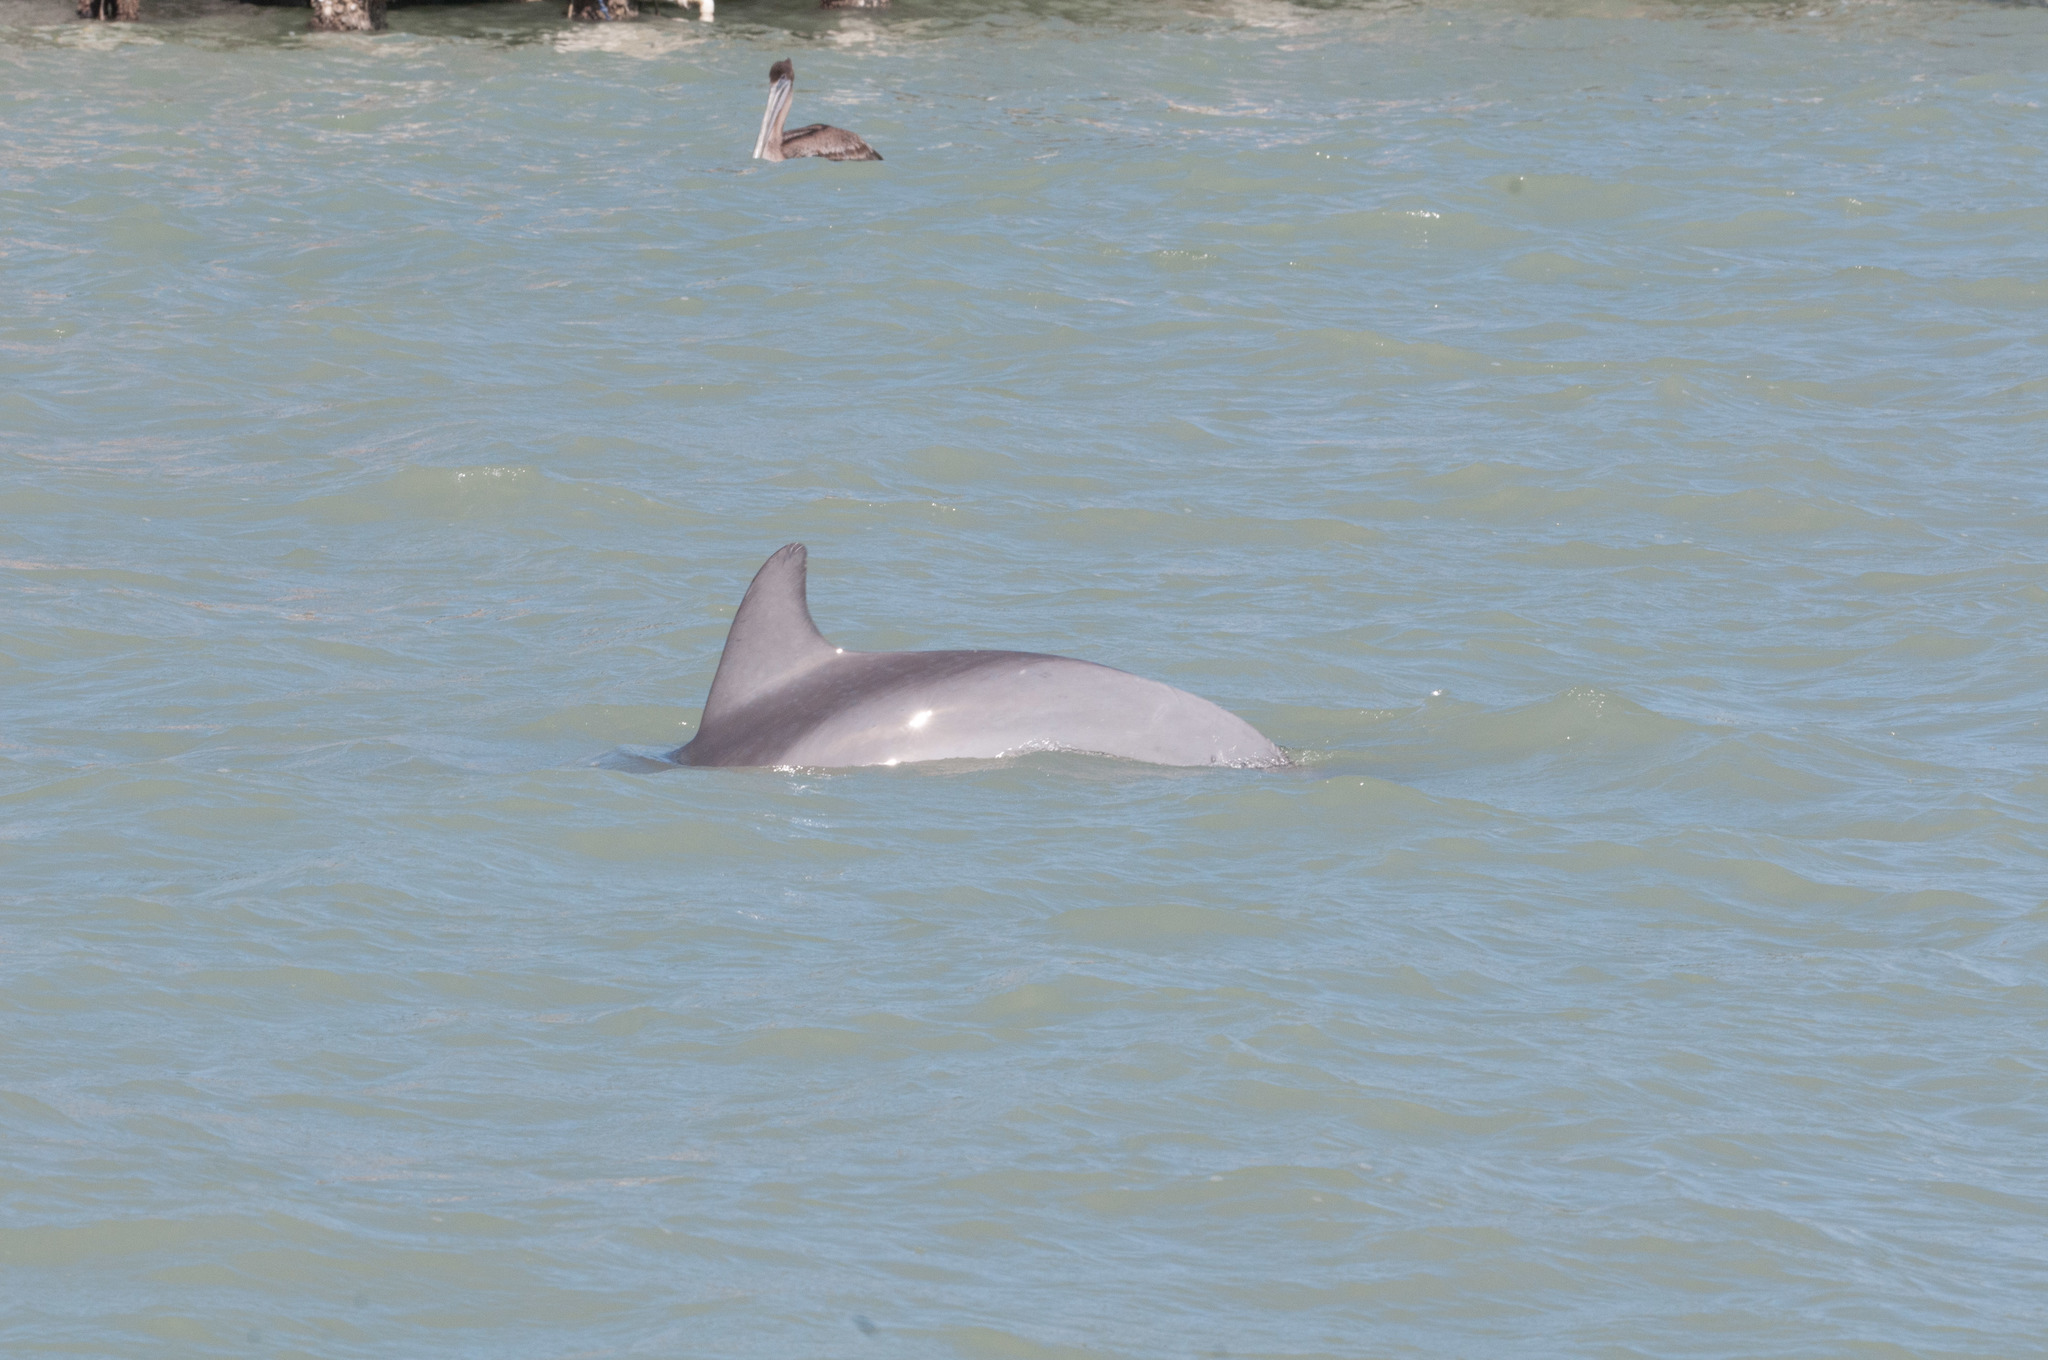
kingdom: Animalia
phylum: Chordata
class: Mammalia
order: Cetacea
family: Delphinidae
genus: Tursiops
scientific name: Tursiops truncatus
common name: Bottlenose dolphin
